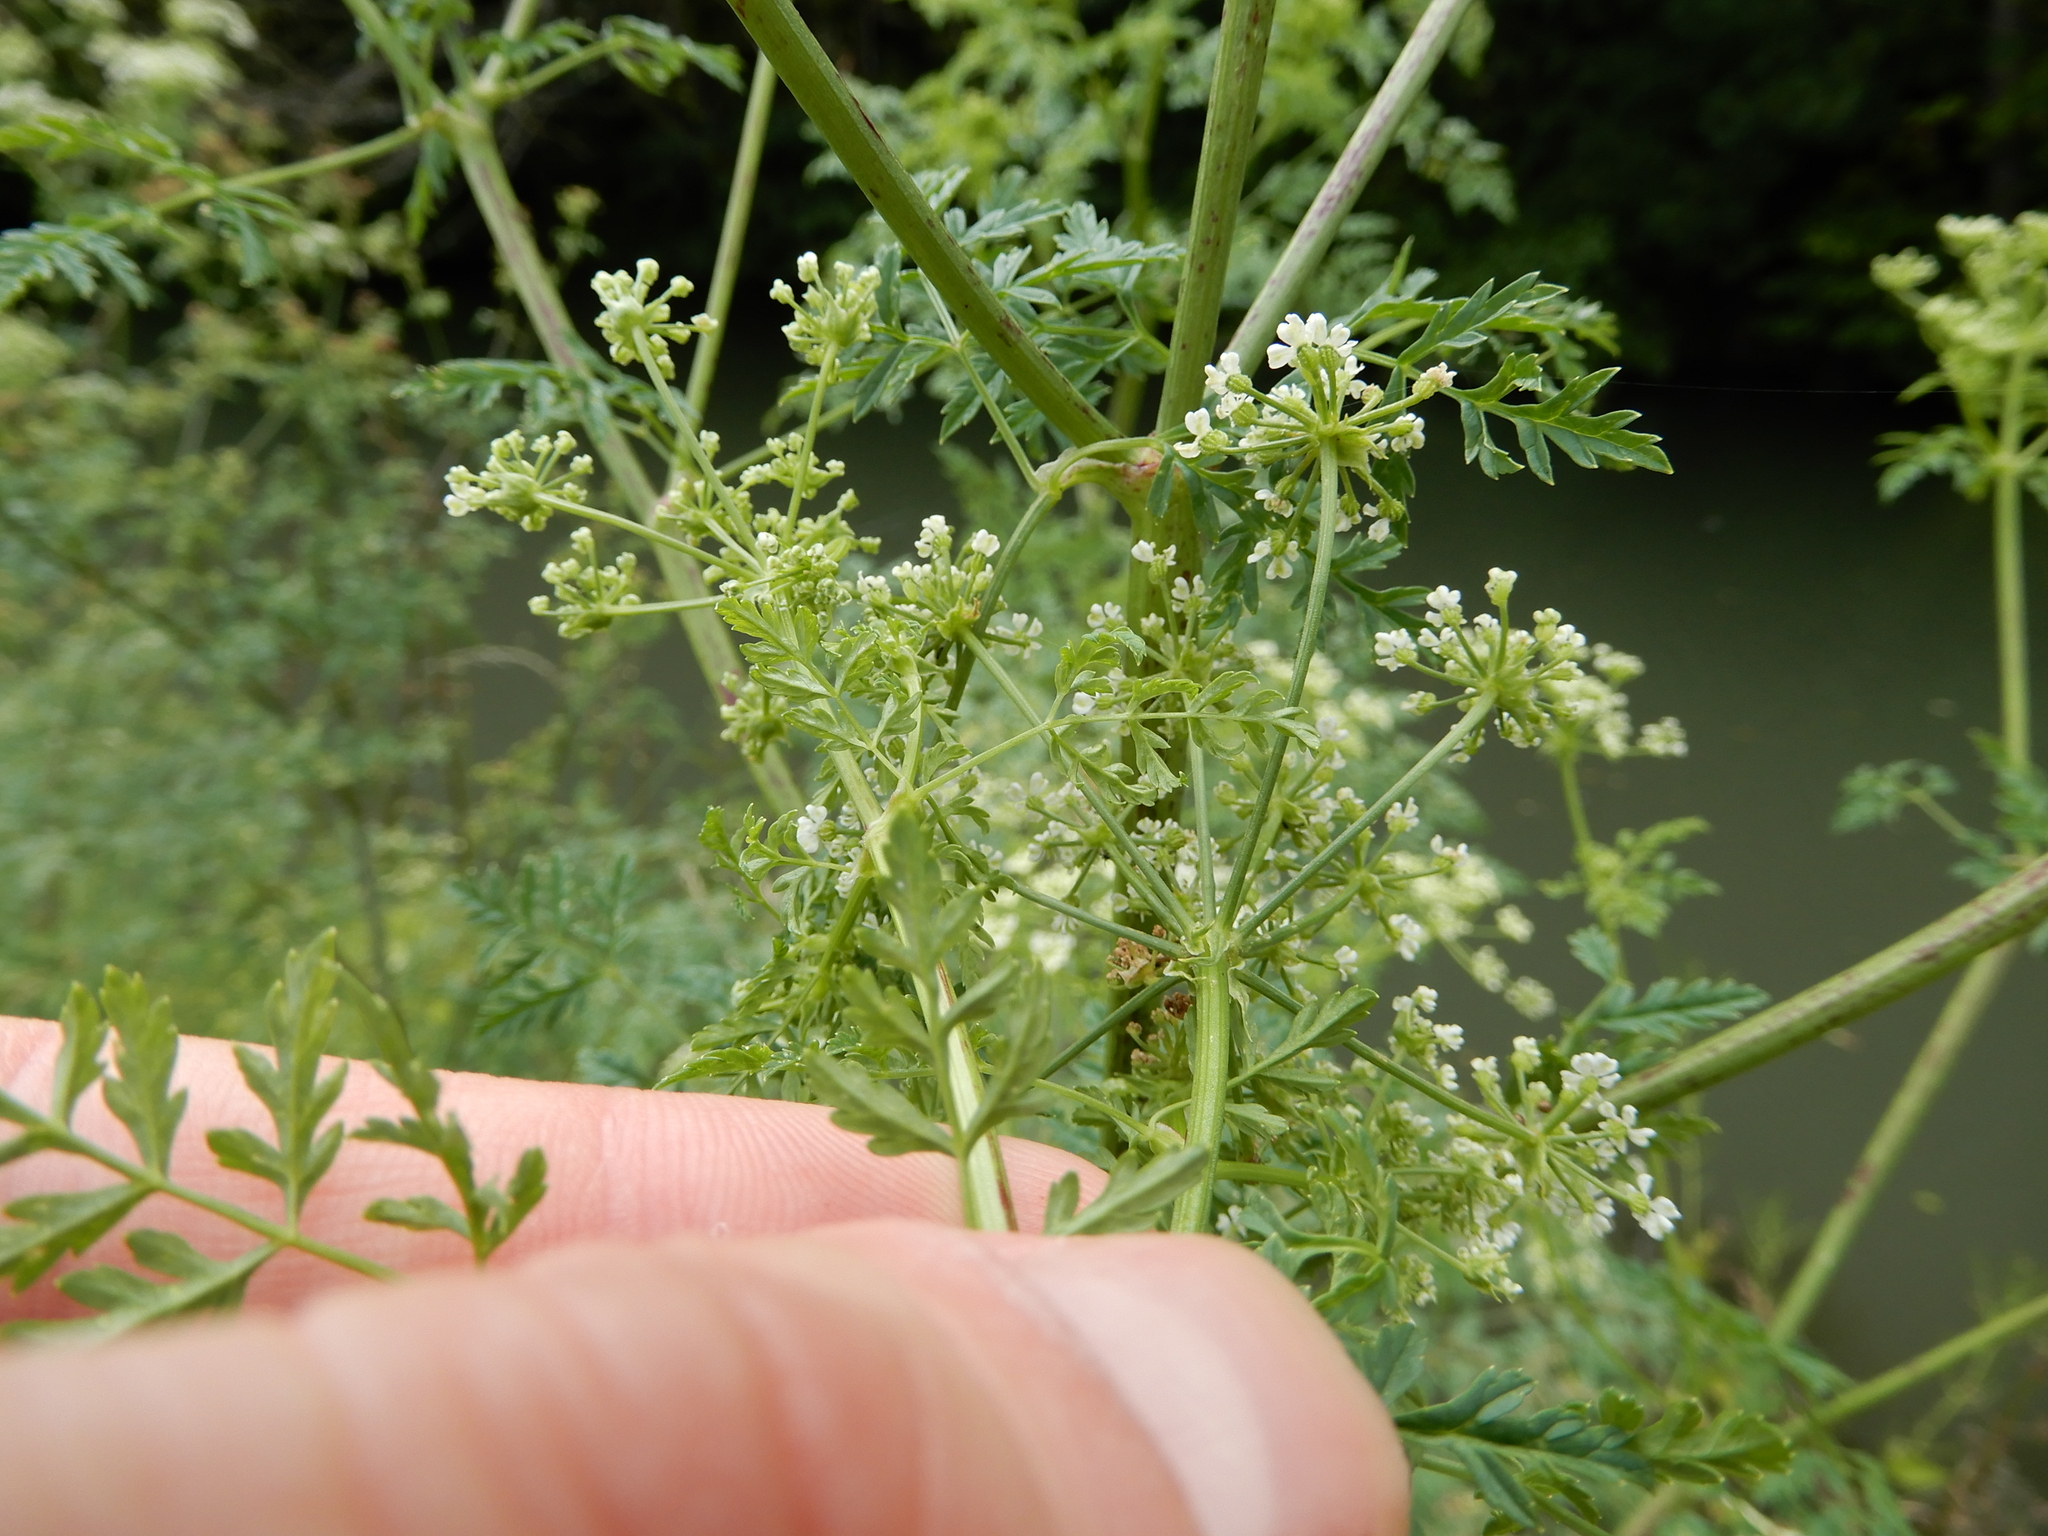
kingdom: Plantae
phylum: Tracheophyta
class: Magnoliopsida
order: Apiales
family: Apiaceae
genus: Conium
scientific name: Conium maculatum
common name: Hemlock
